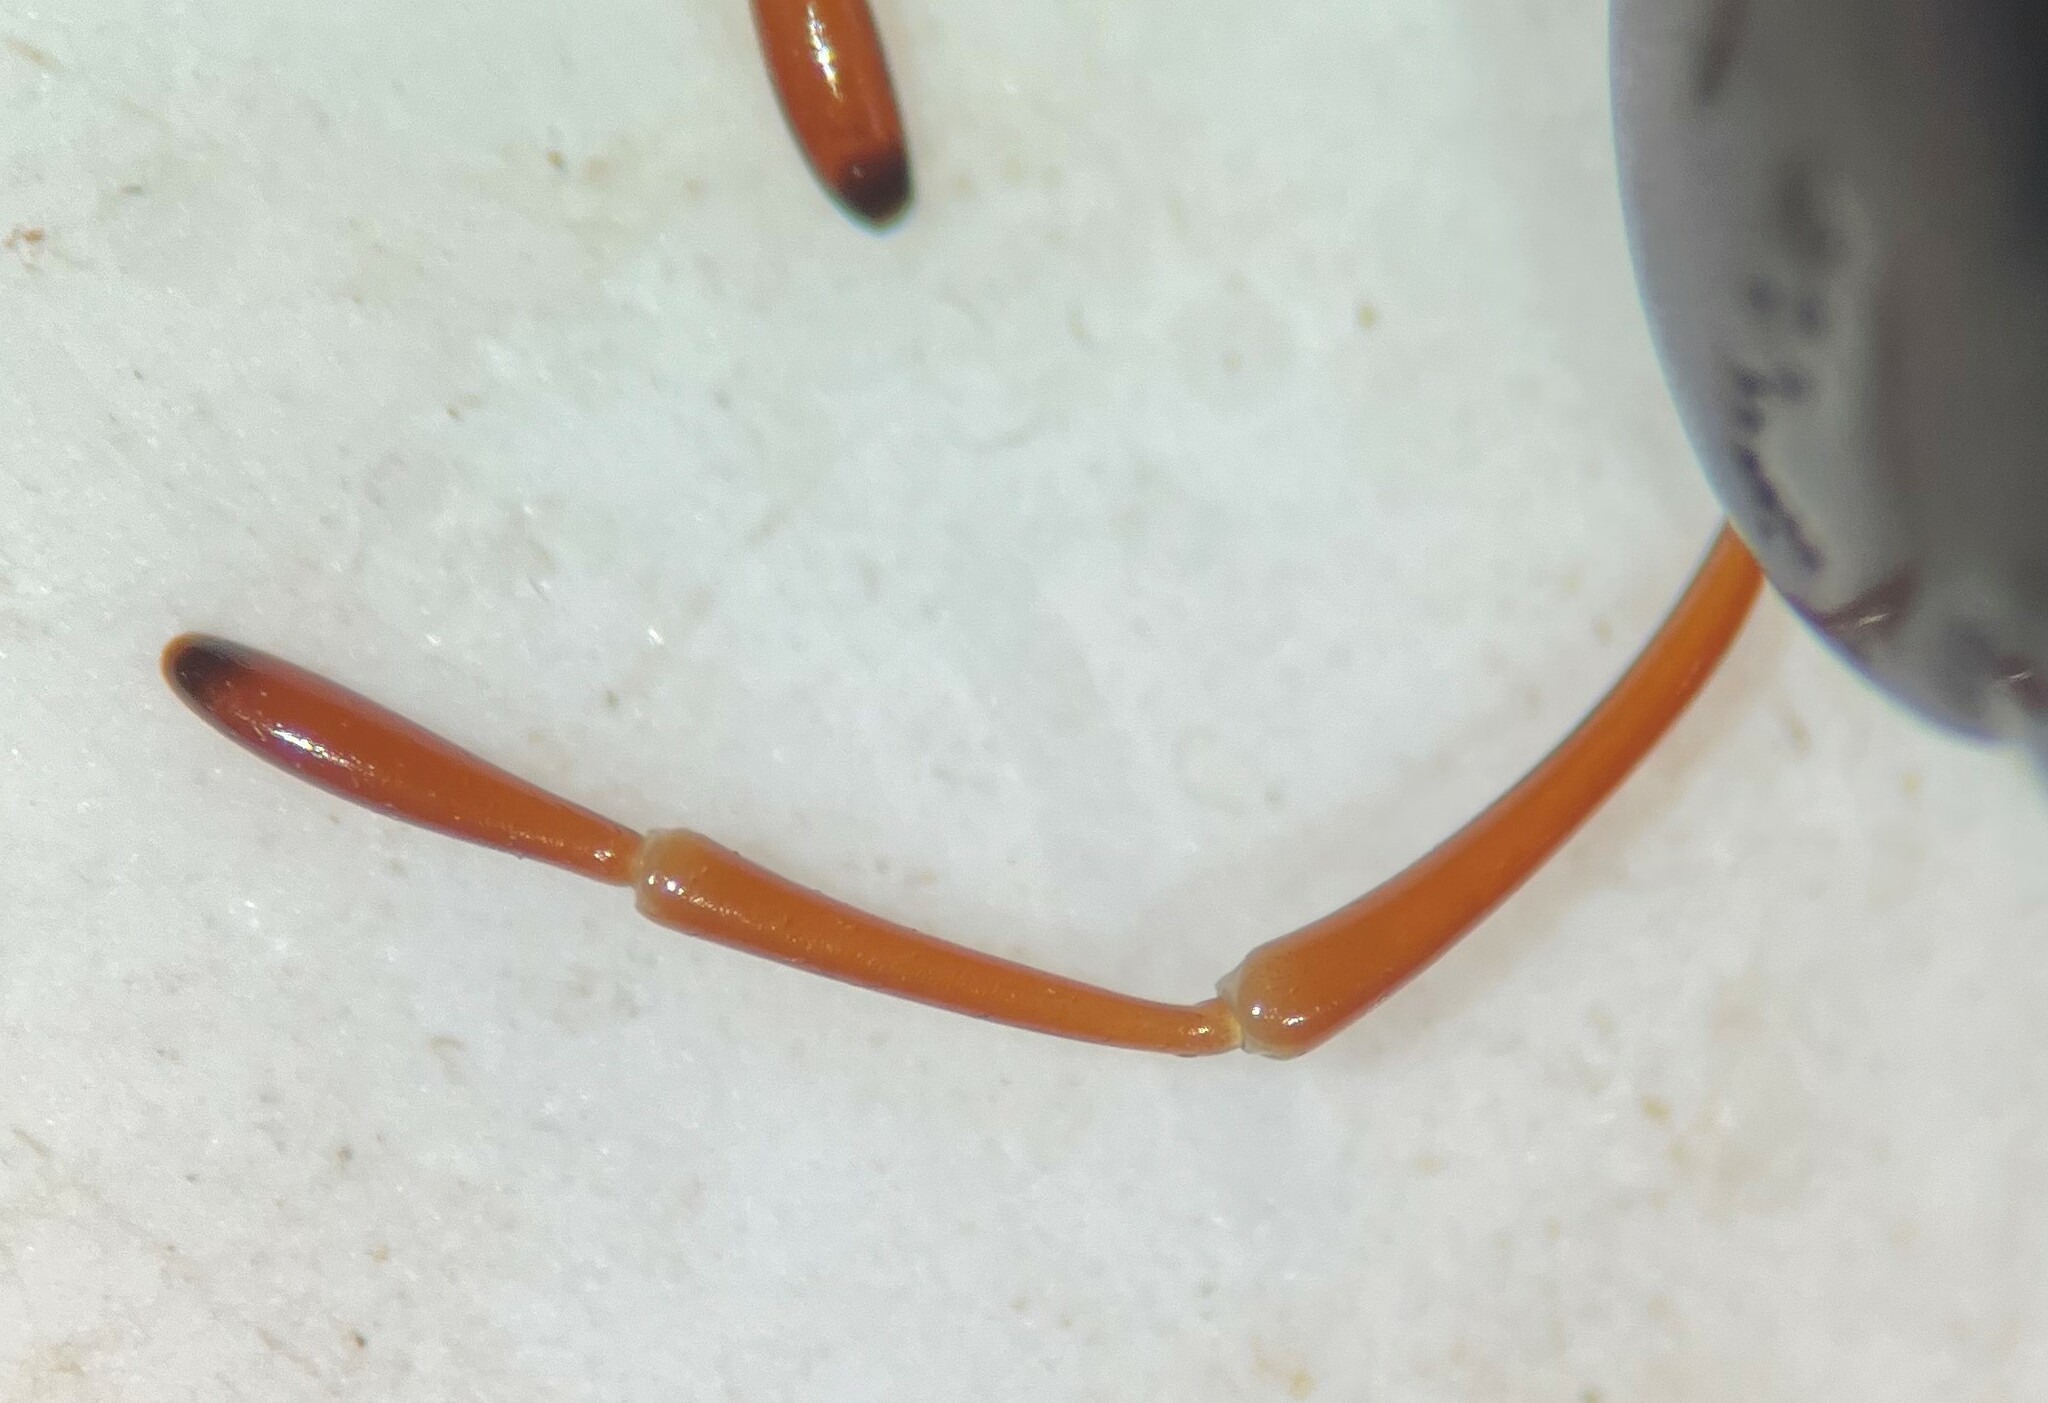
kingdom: Animalia
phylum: Arthropoda
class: Insecta
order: Coleoptera
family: Hydrophilidae
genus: Hydrochara
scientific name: Hydrochara obtusata
